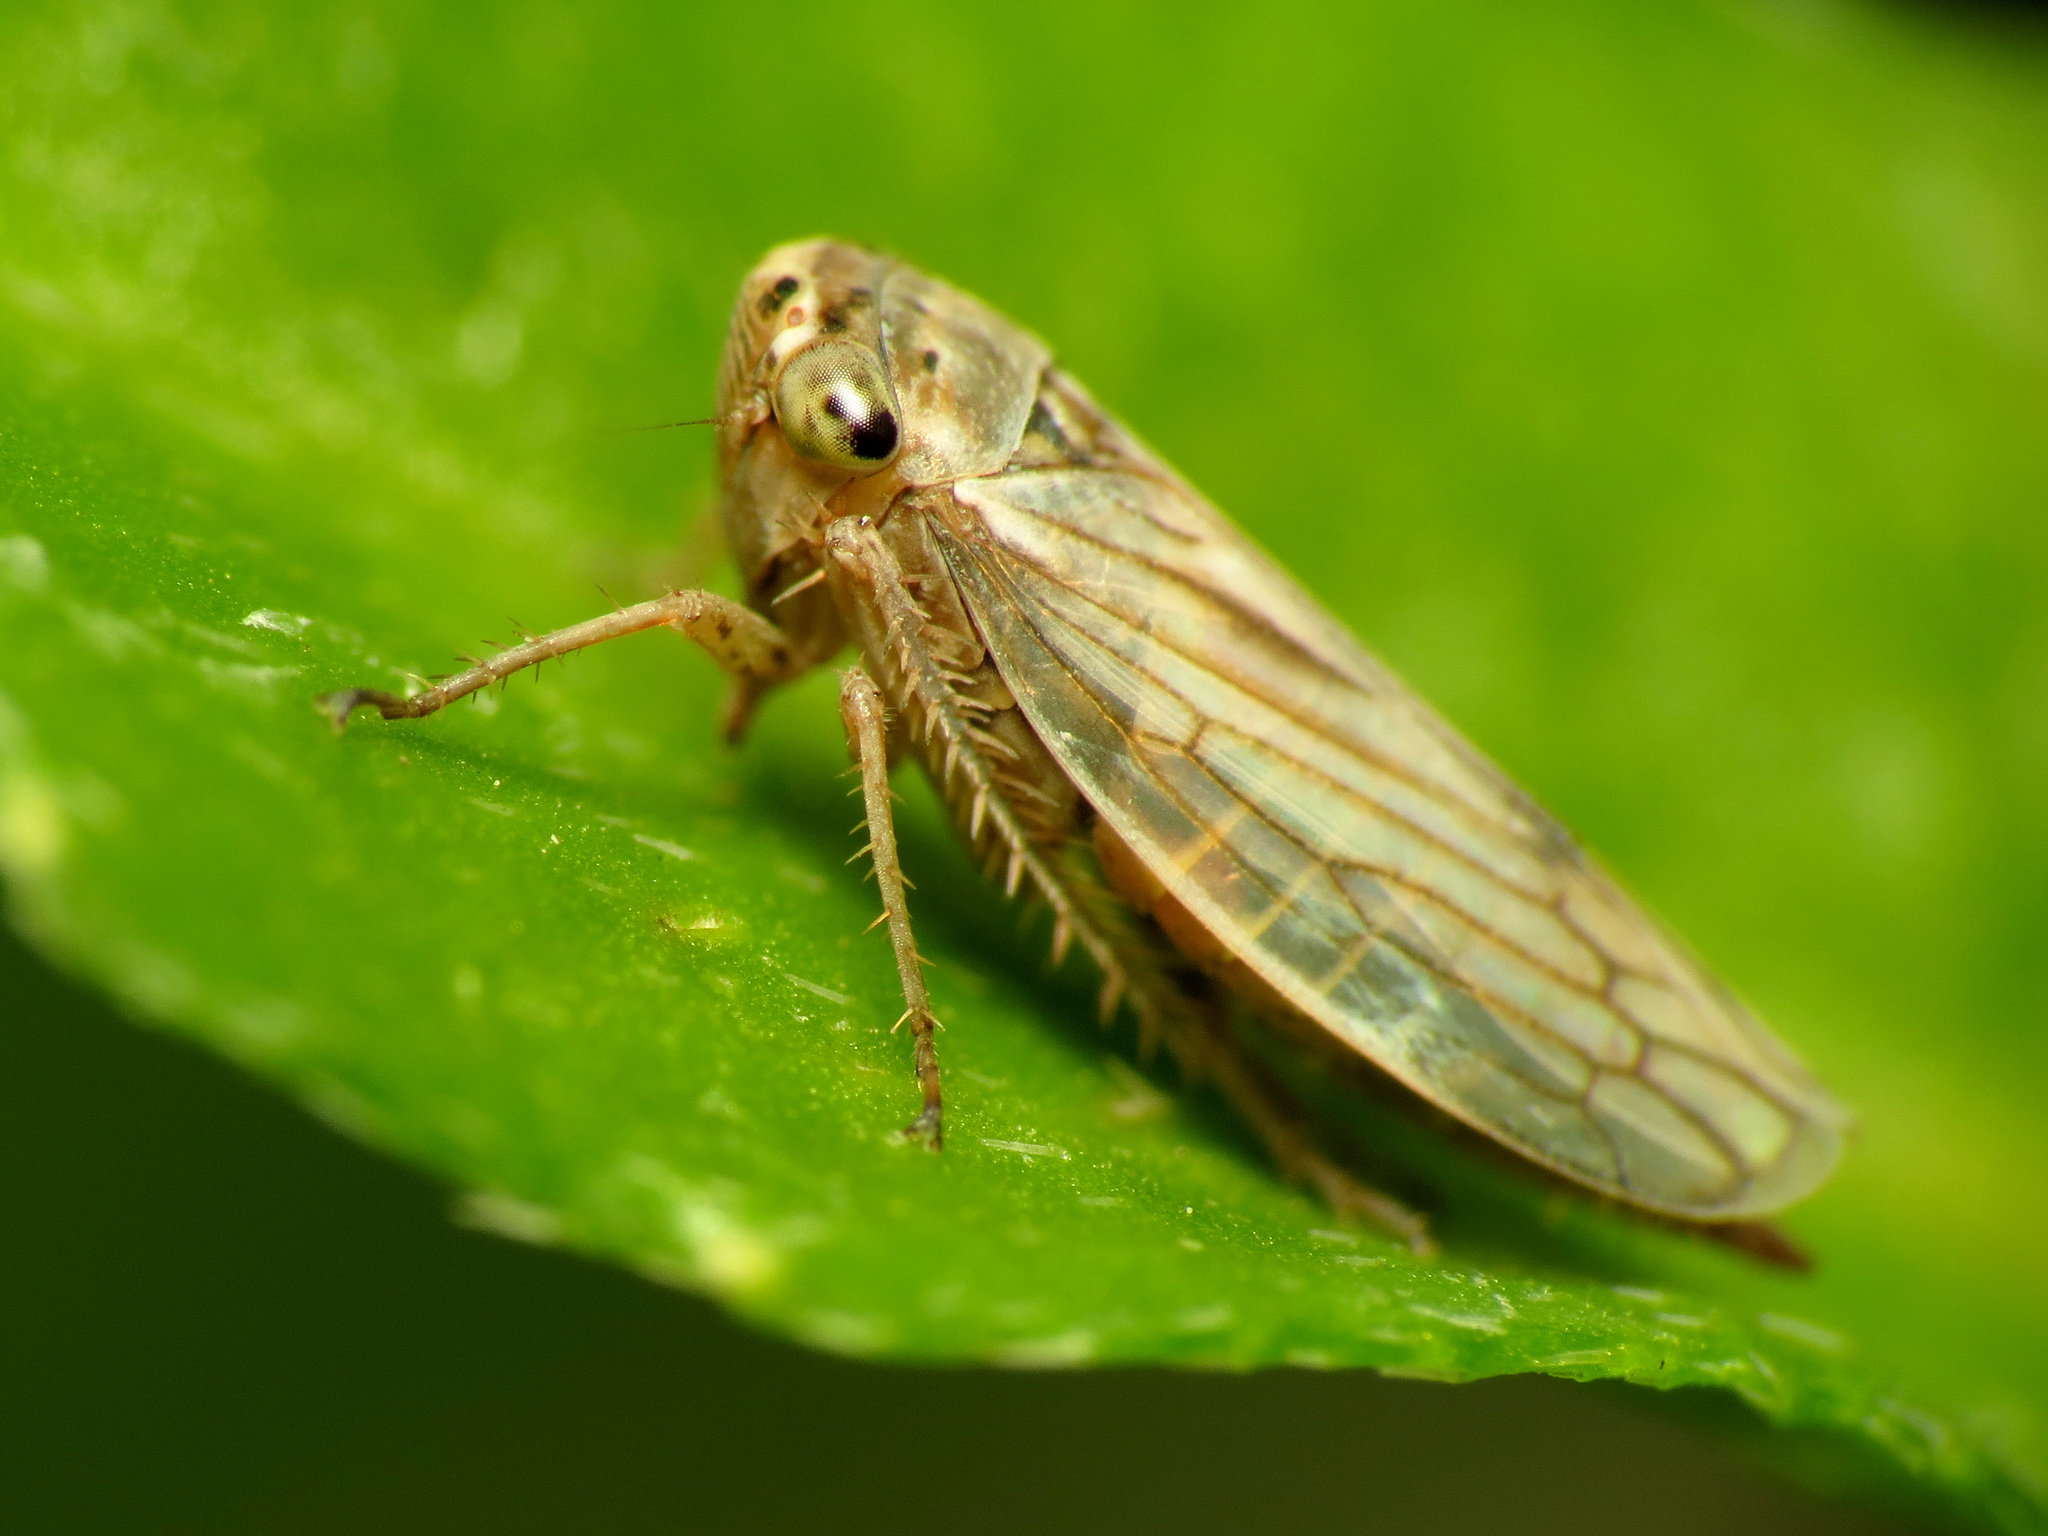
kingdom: Animalia
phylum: Arthropoda
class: Insecta
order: Hemiptera
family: Cicadellidae
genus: Exitianus
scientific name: Exitianus exitiosus
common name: Gray lawn leafhopper
